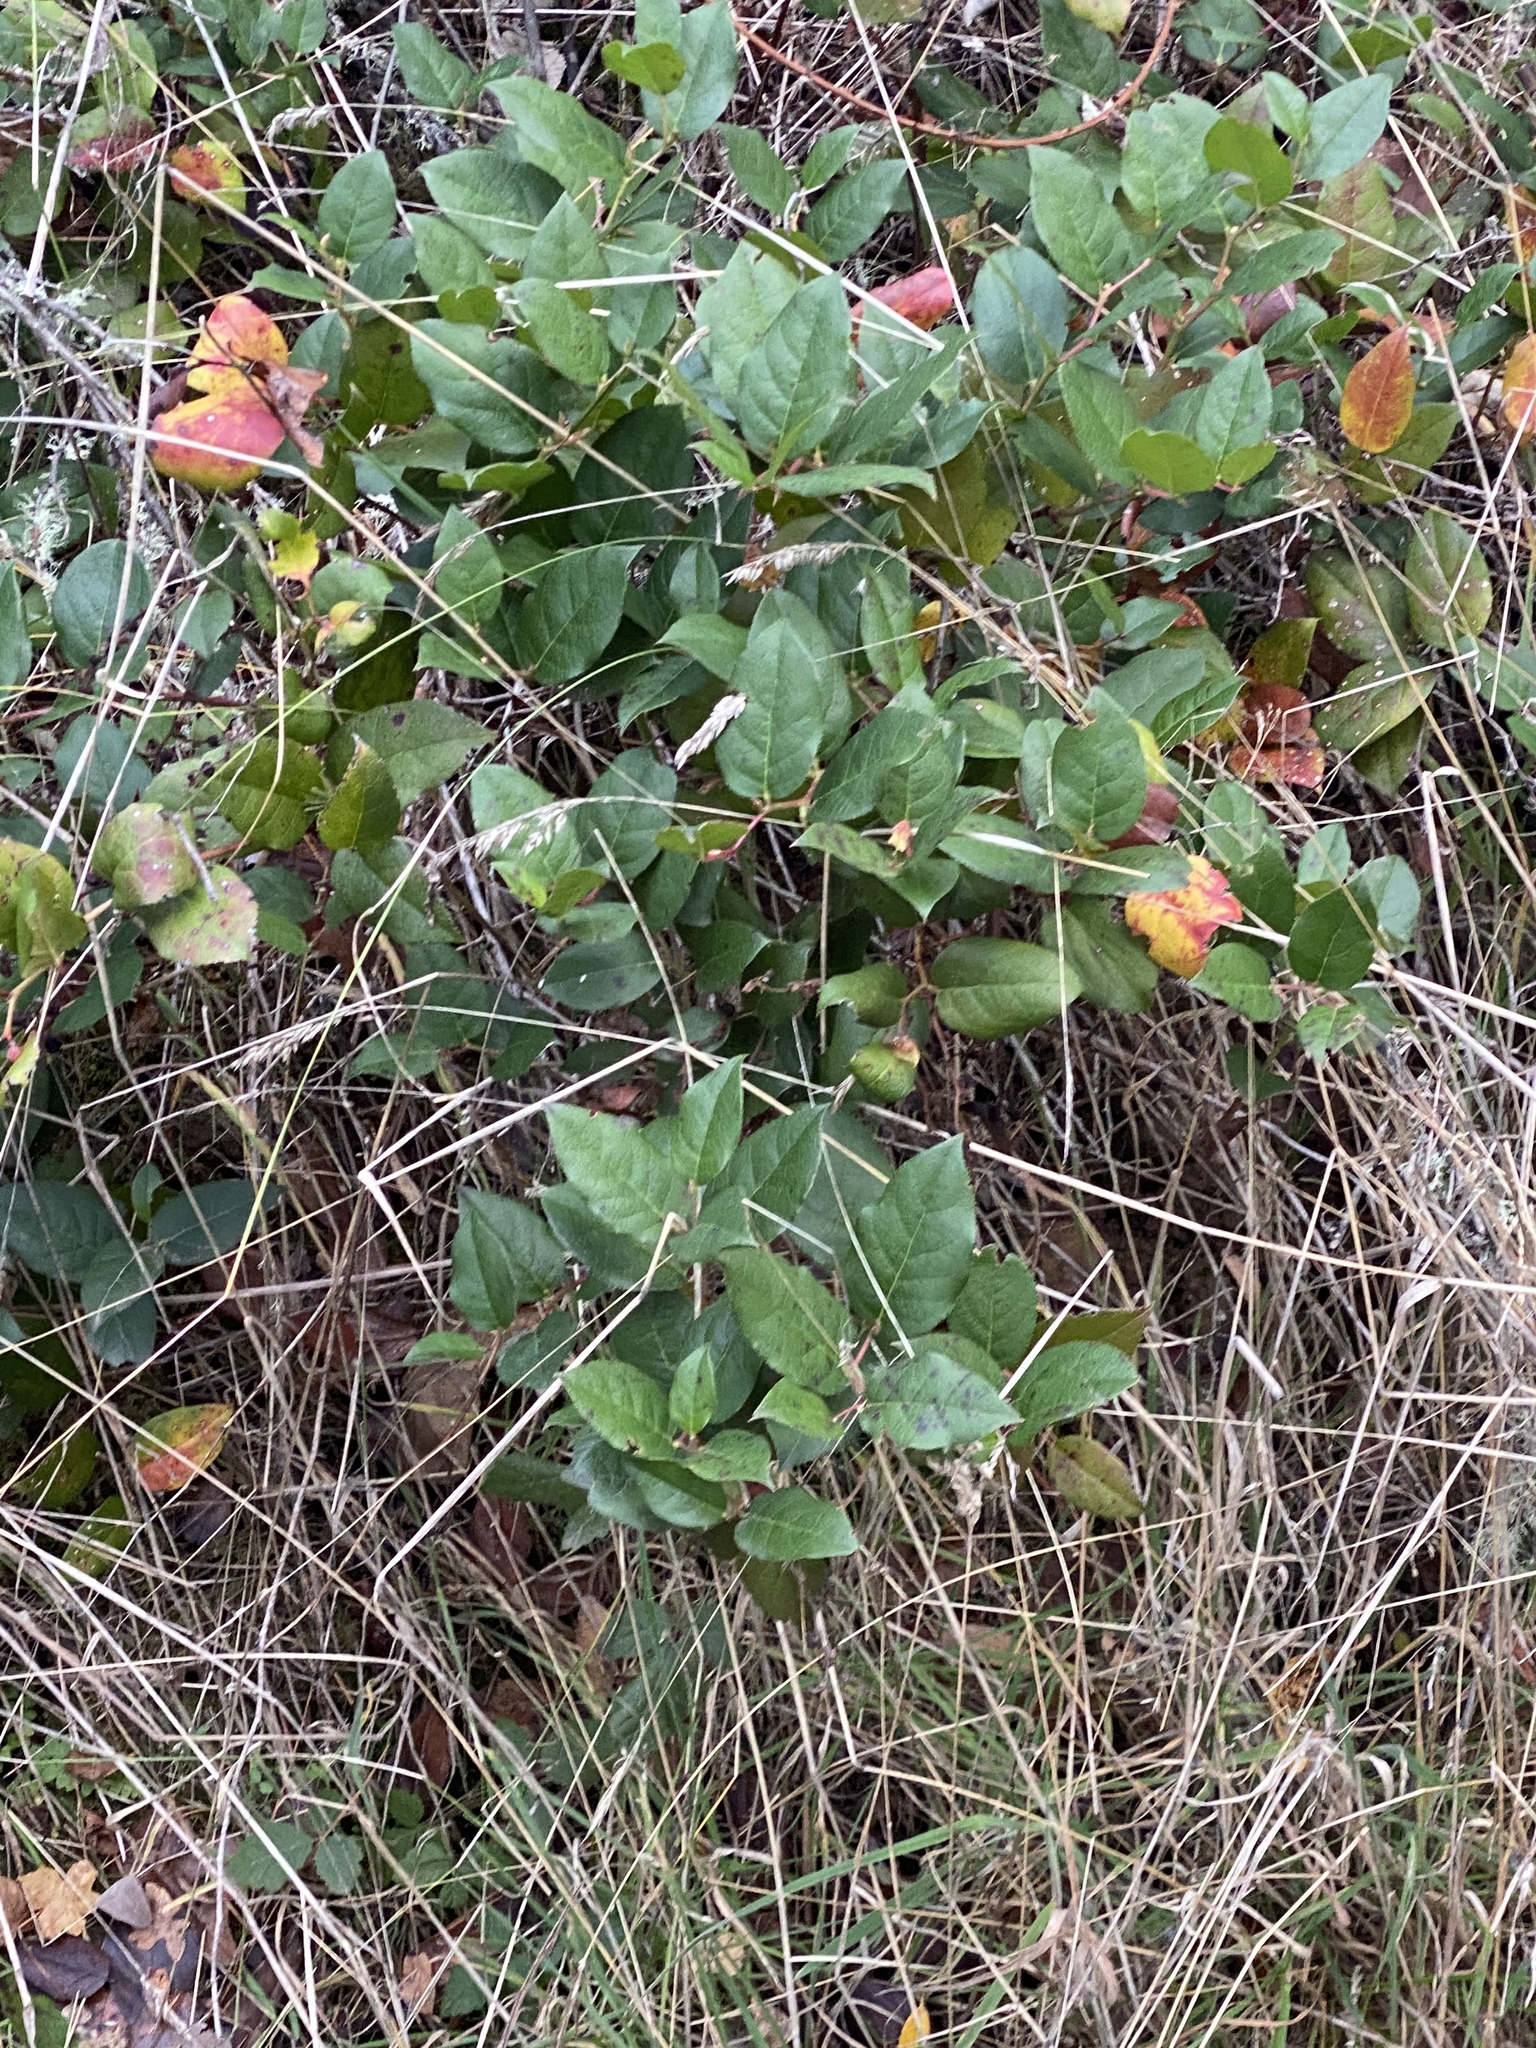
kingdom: Plantae
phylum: Tracheophyta
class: Magnoliopsida
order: Ericales
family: Ericaceae
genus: Gaultheria
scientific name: Gaultheria shallon
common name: Shallon
